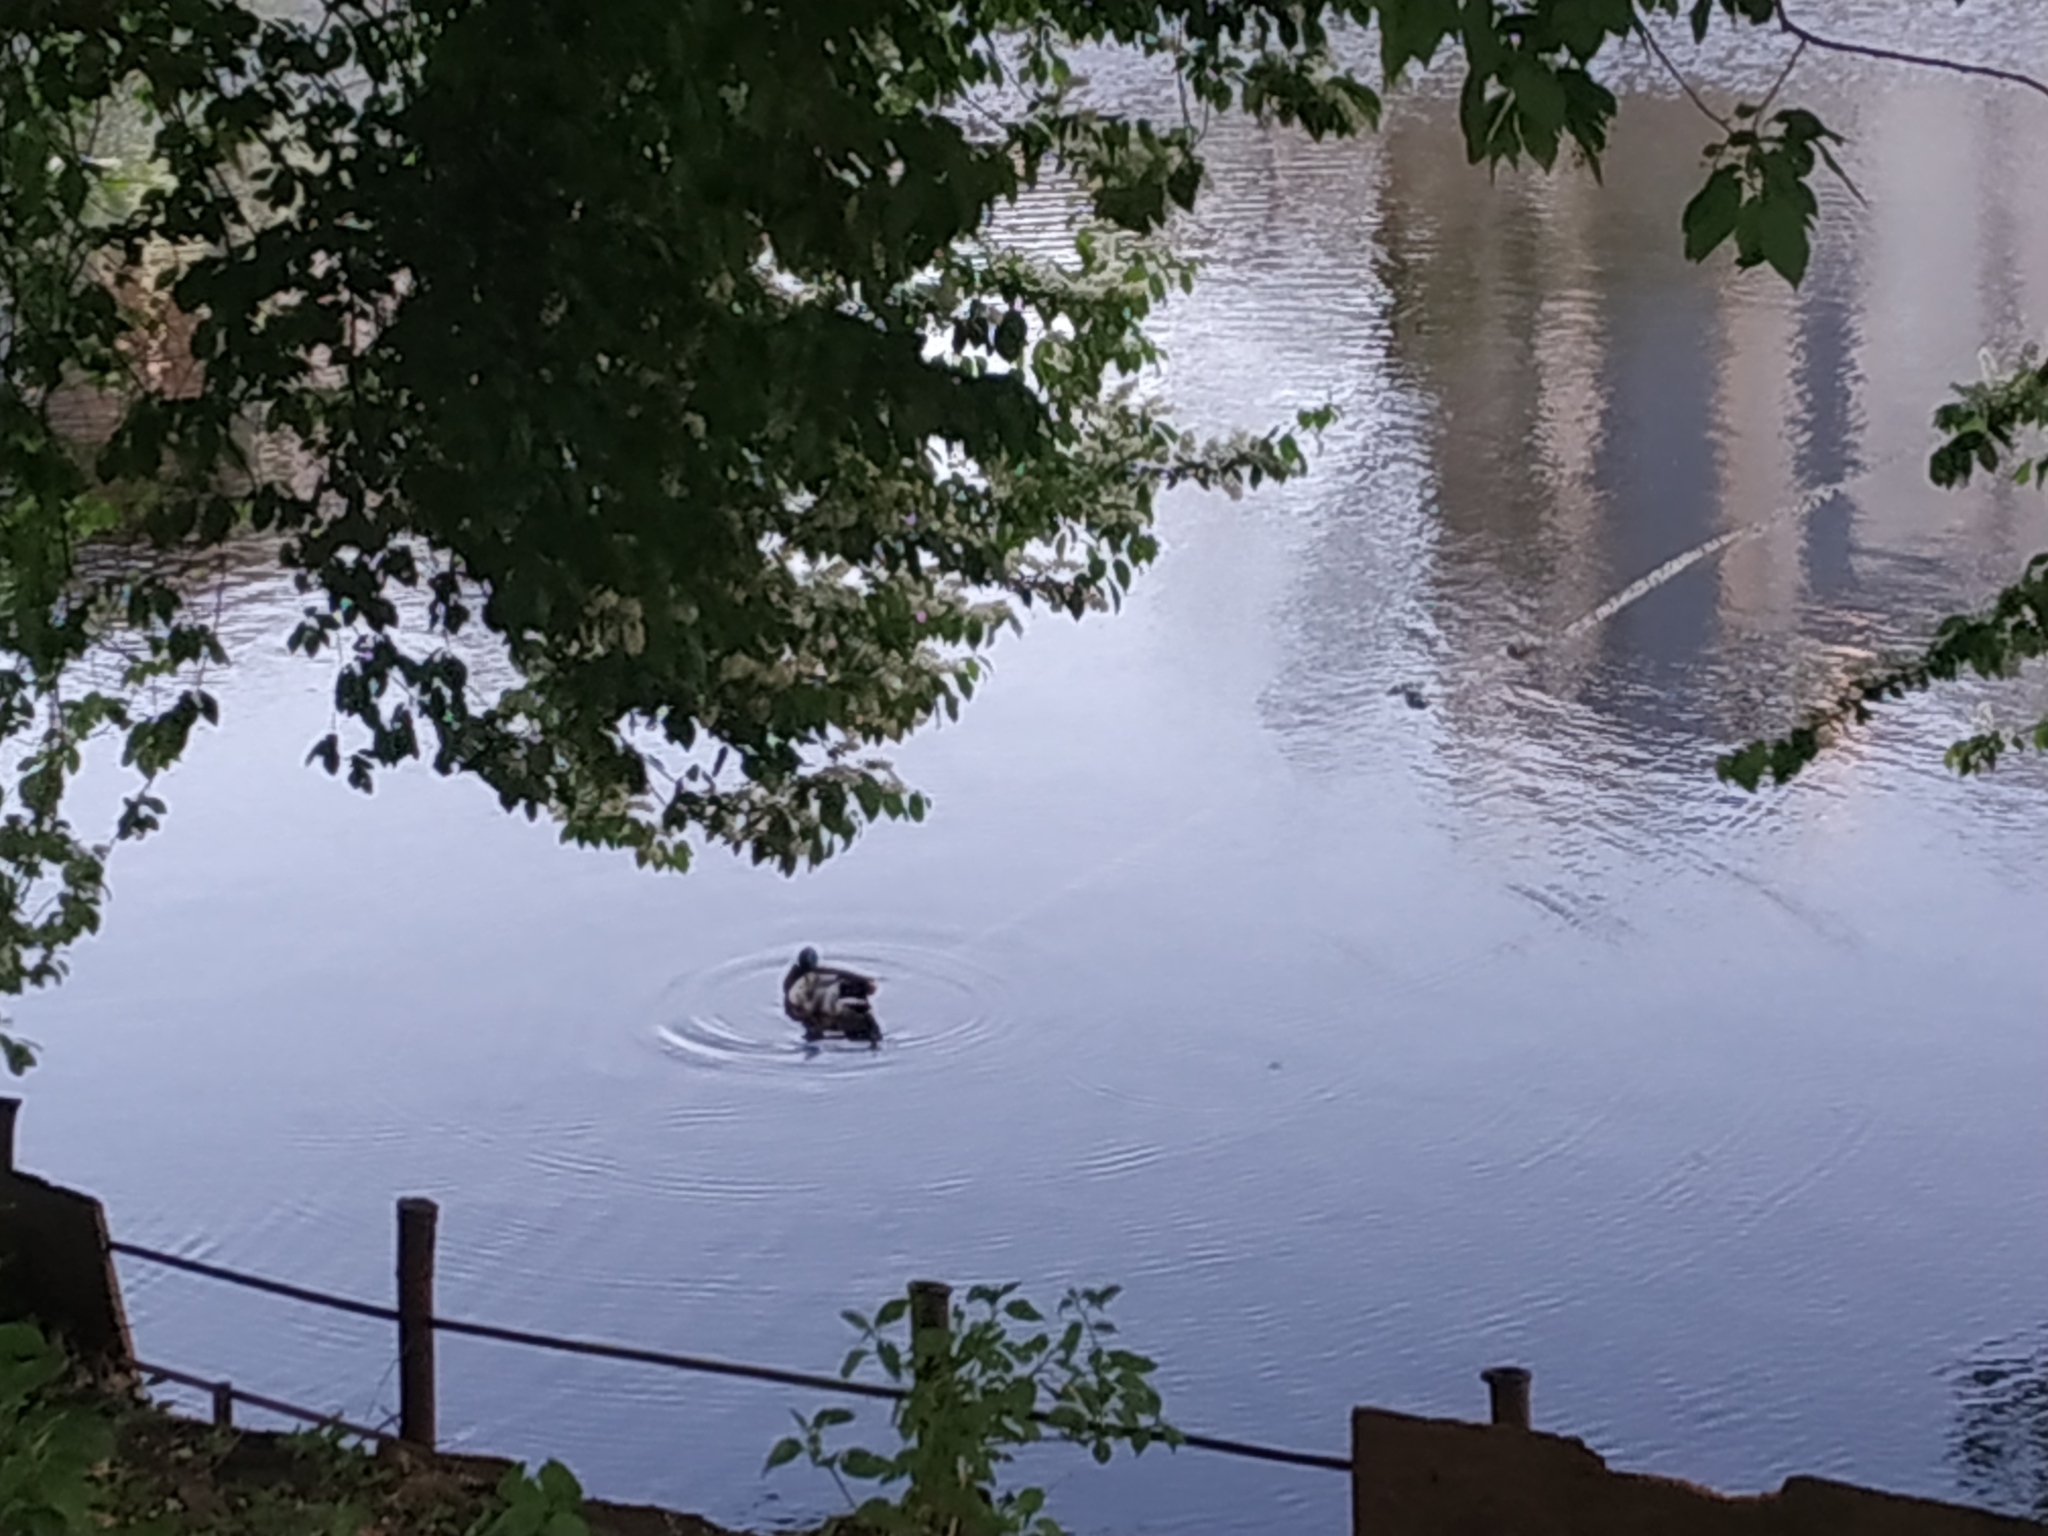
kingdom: Animalia
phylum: Chordata
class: Aves
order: Anseriformes
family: Anatidae
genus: Anas
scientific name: Anas platyrhynchos
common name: Mallard
